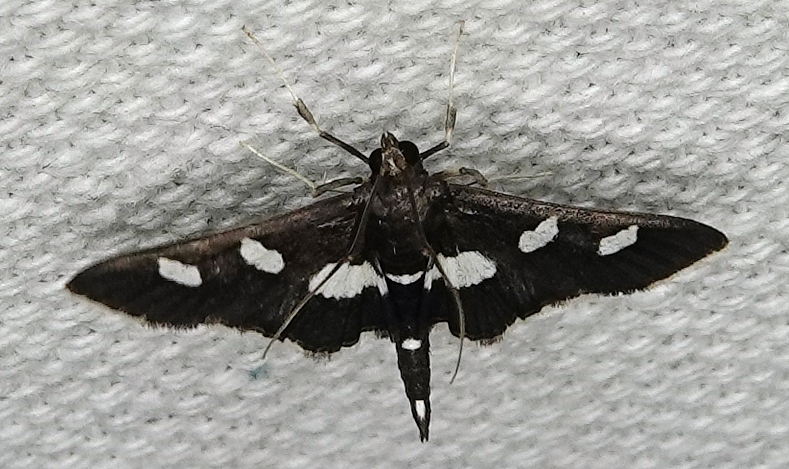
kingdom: Animalia
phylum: Arthropoda
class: Insecta
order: Lepidoptera
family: Crambidae
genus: Desmia
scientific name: Desmia
